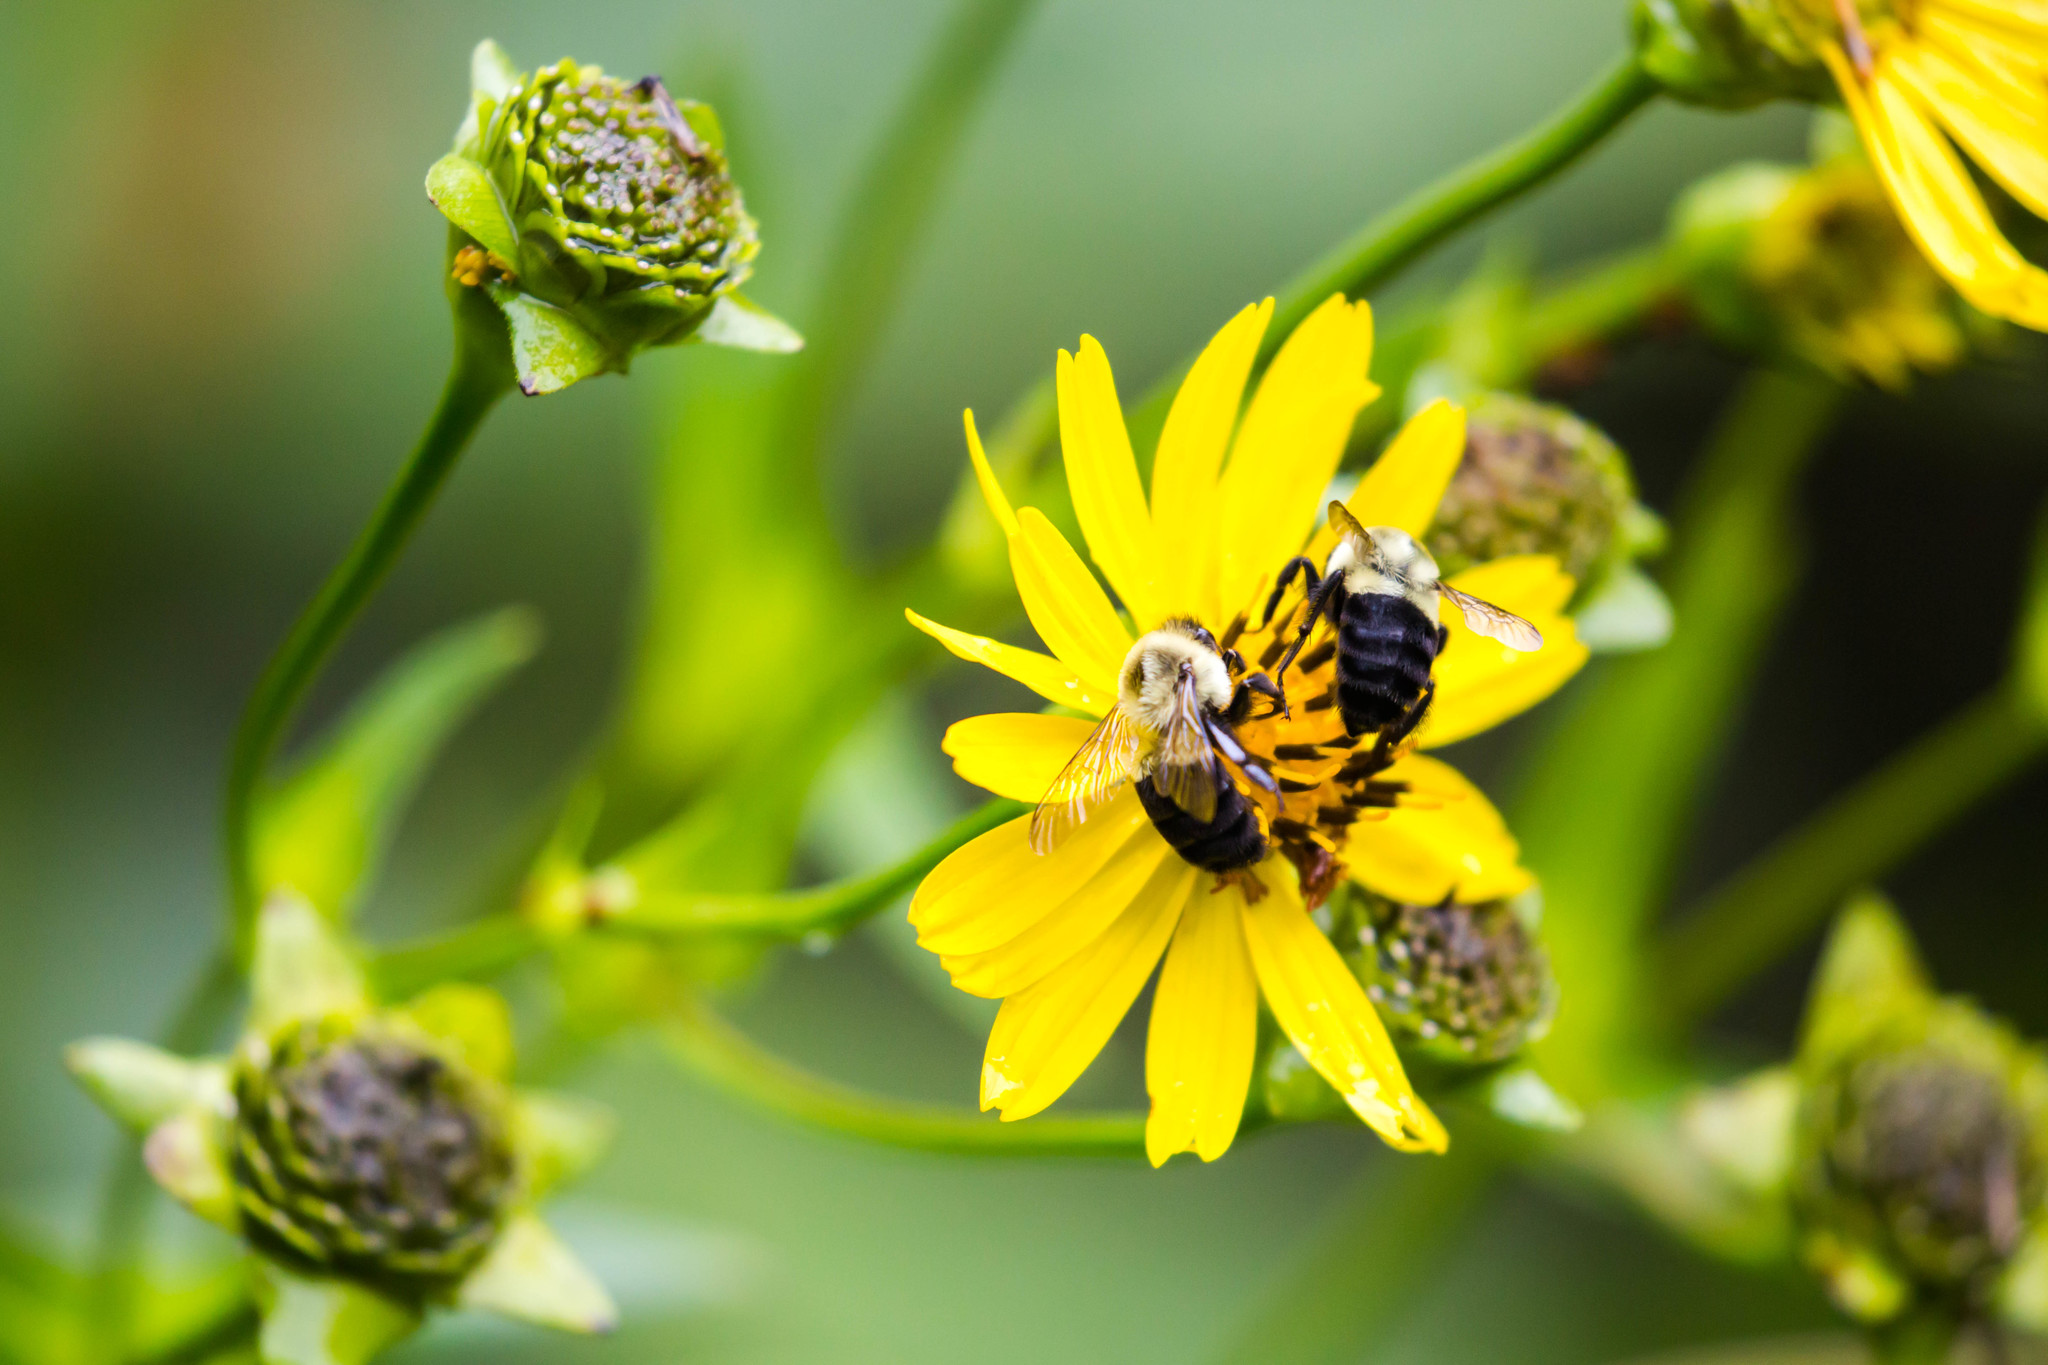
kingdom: Animalia
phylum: Arthropoda
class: Insecta
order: Hymenoptera
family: Apidae
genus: Bombus
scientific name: Bombus impatiens
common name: Common eastern bumble bee
